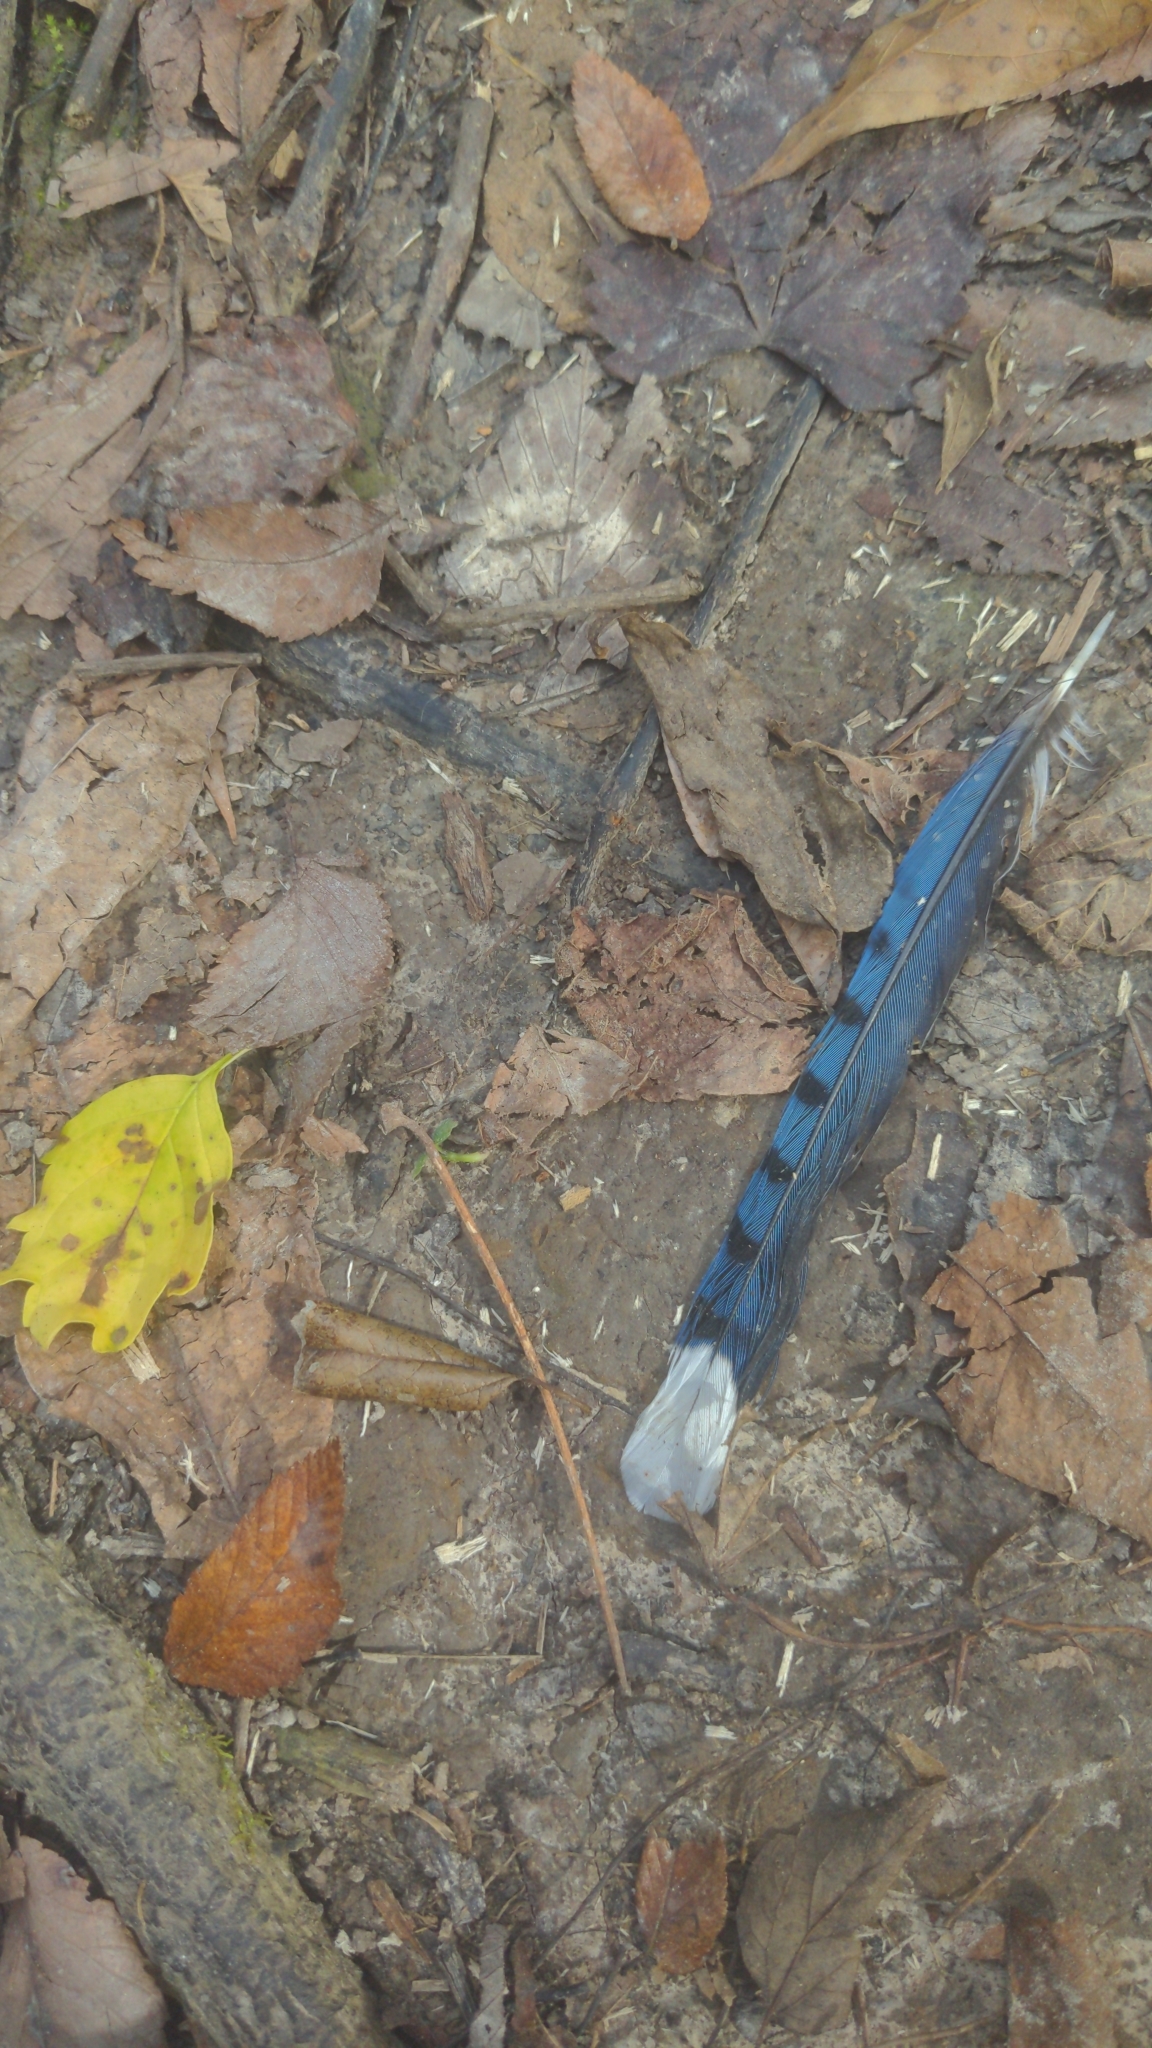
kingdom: Animalia
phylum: Chordata
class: Aves
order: Passeriformes
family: Corvidae
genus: Cyanocitta
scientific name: Cyanocitta cristata
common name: Blue jay
